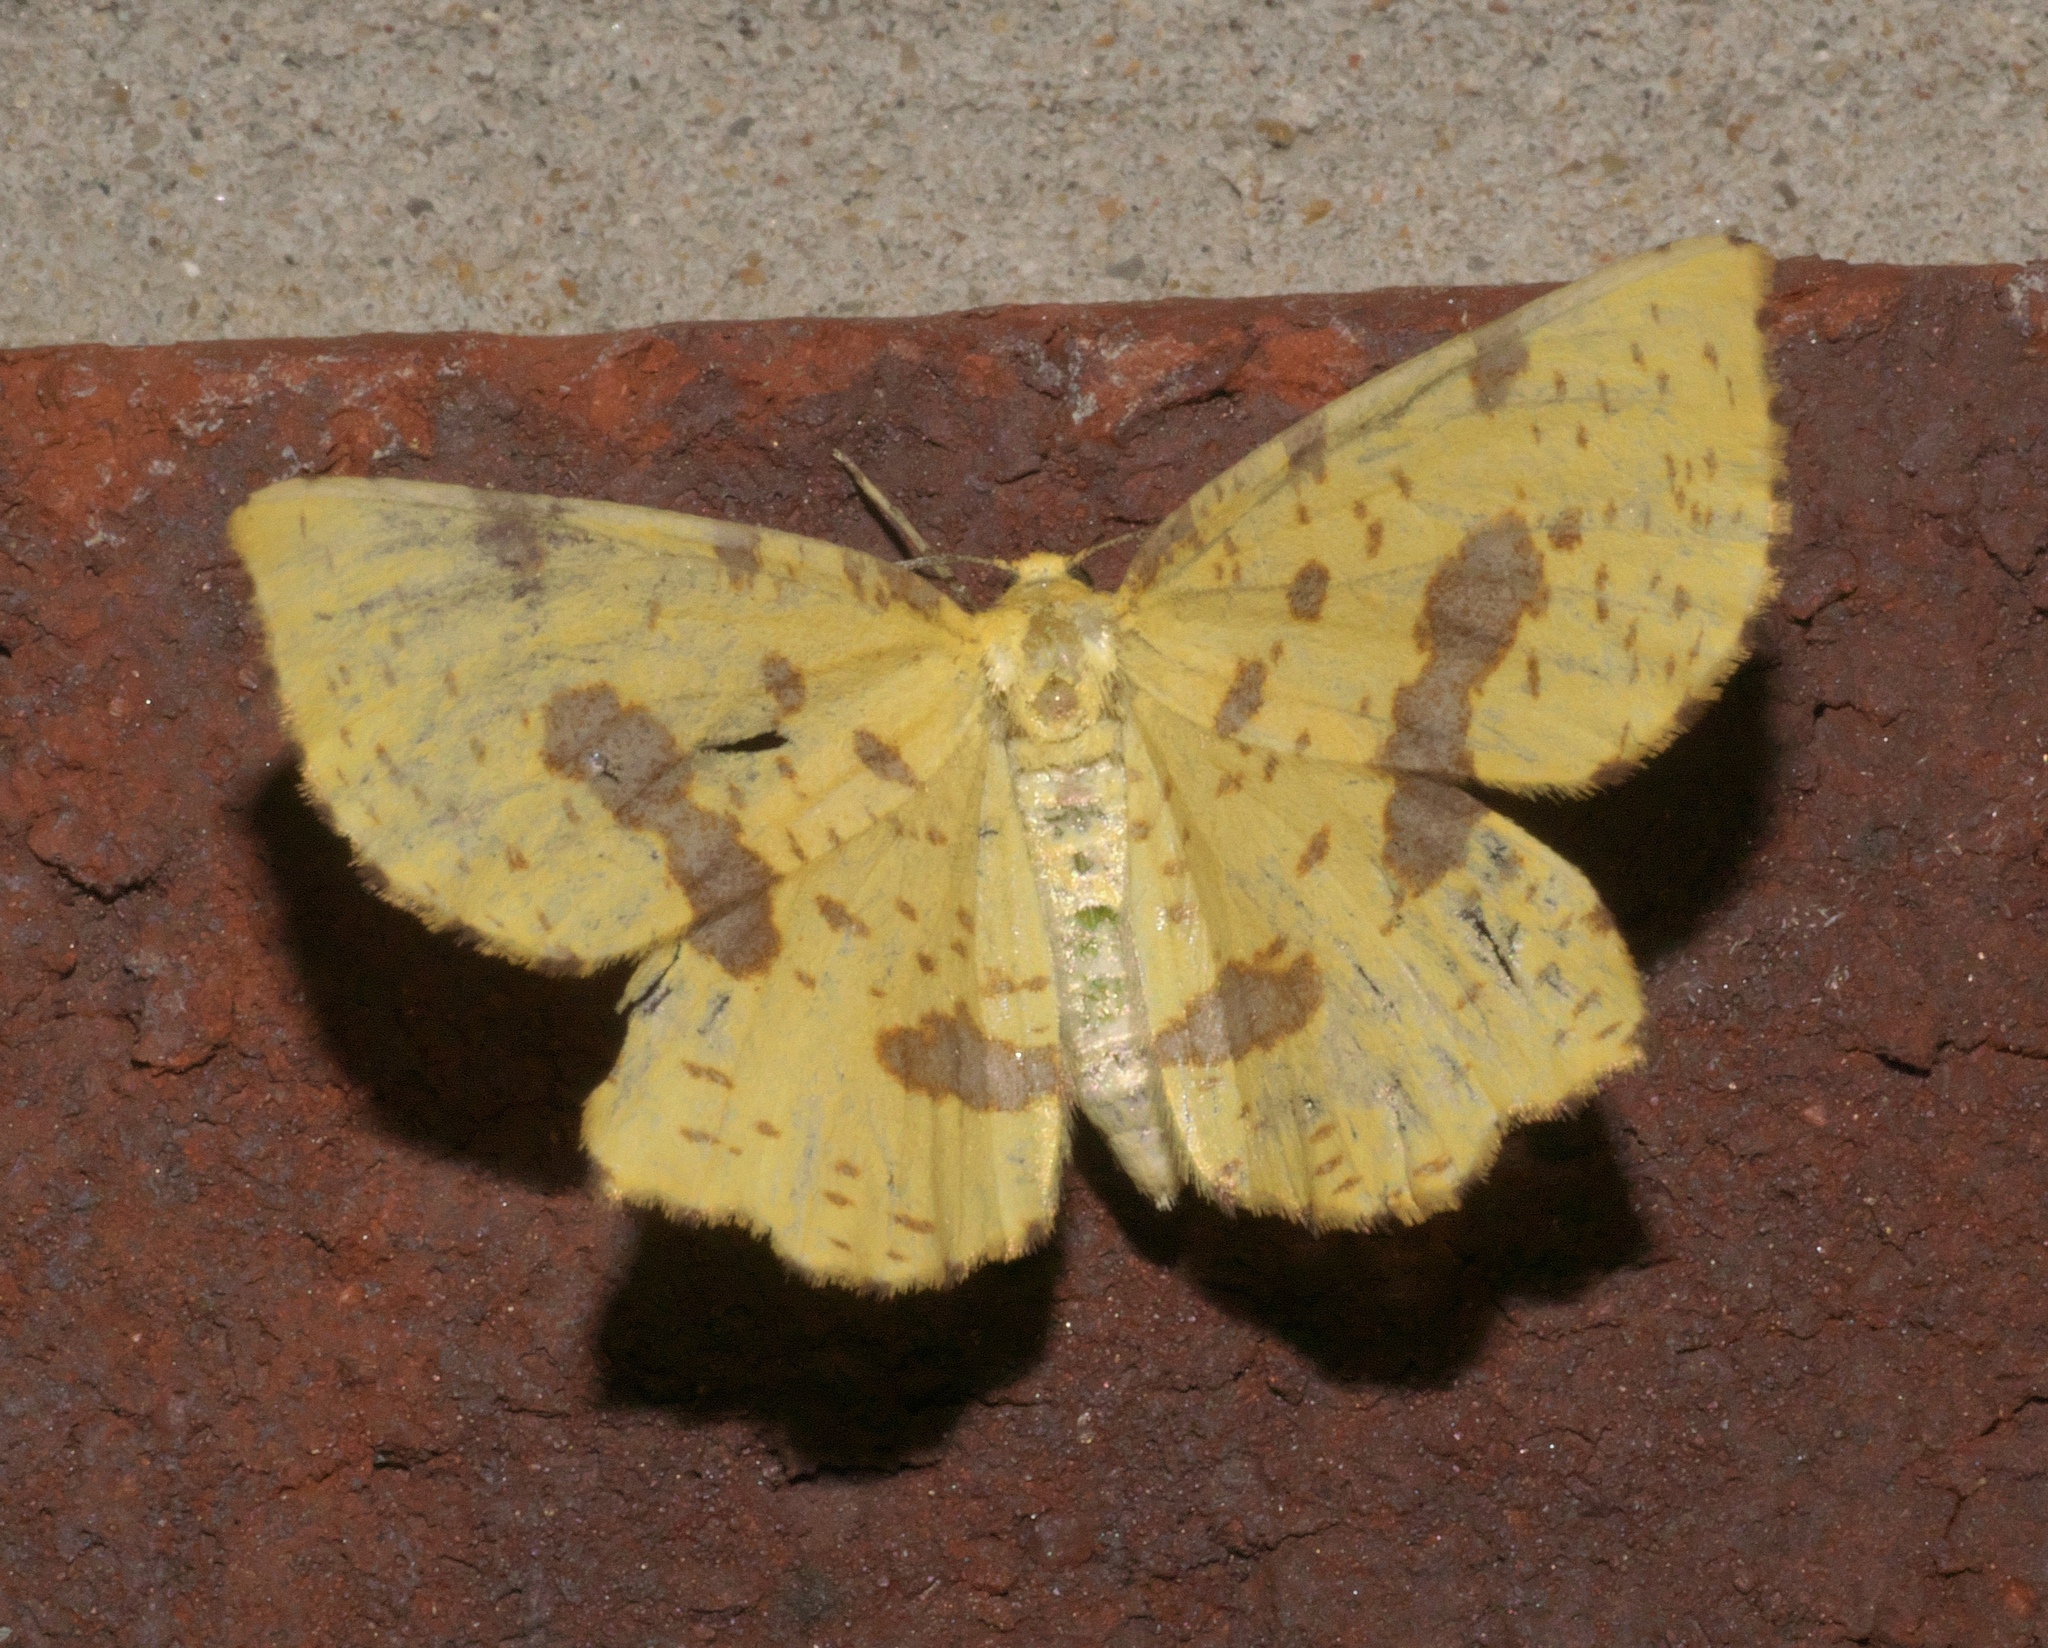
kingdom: Animalia
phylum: Arthropoda
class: Insecta
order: Lepidoptera
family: Geometridae
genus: Xanthotype
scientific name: Xanthotype
